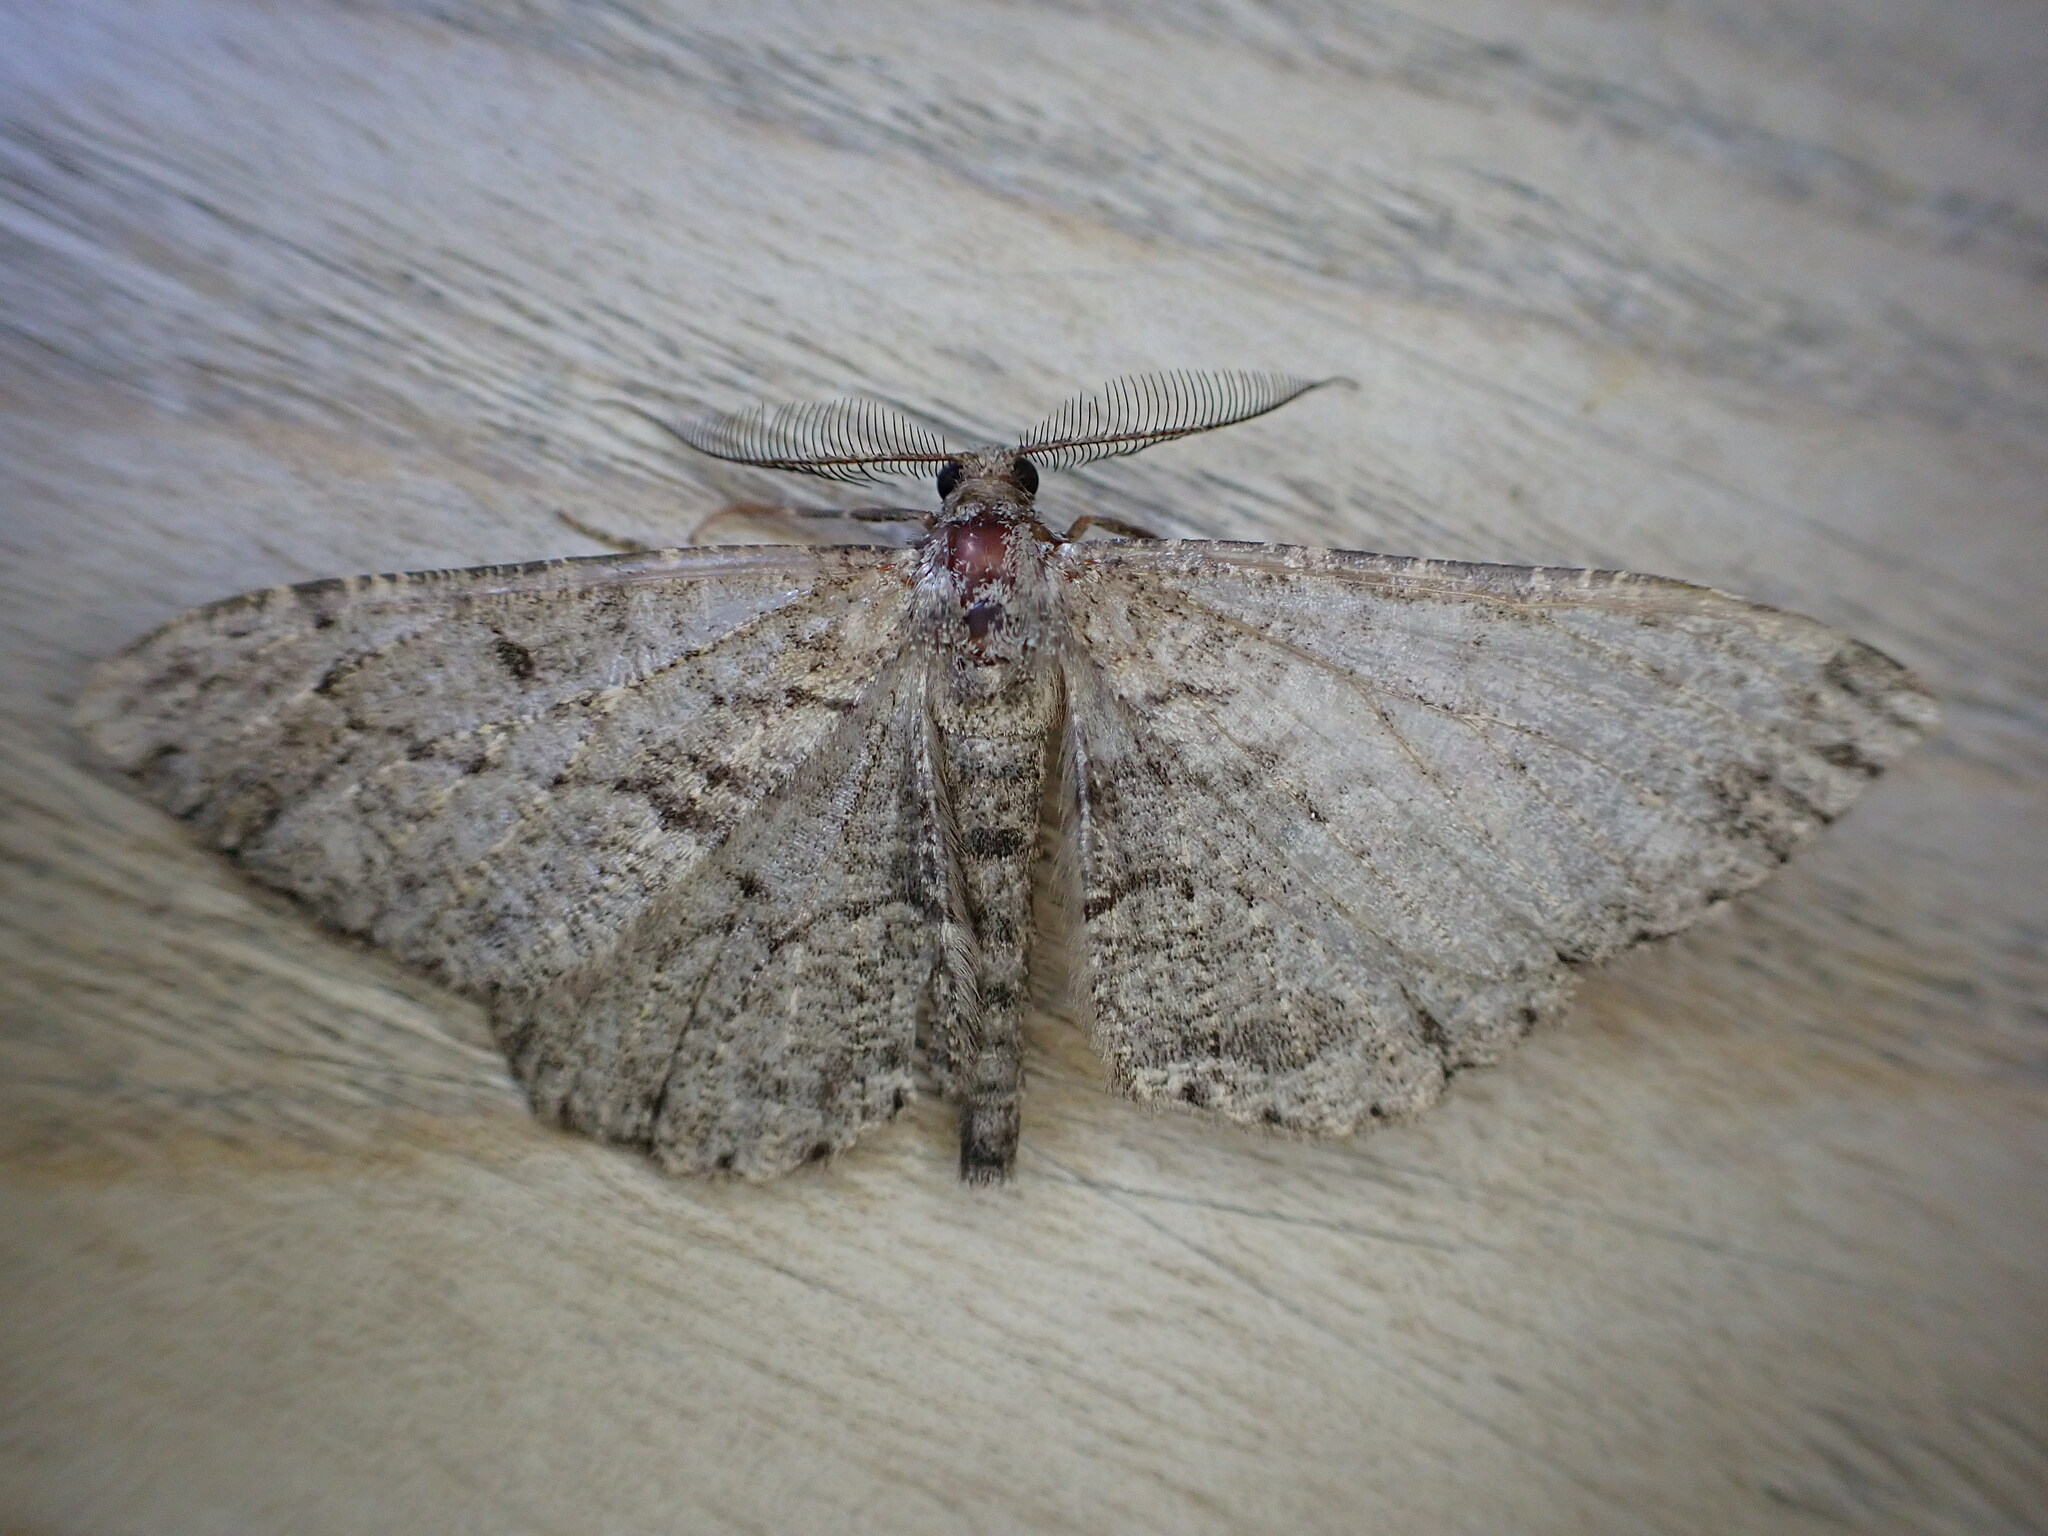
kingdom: Animalia
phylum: Arthropoda
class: Insecta
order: Lepidoptera
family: Geometridae
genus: Peribatodes
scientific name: Peribatodes rhomboidaria
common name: Willow beauty
